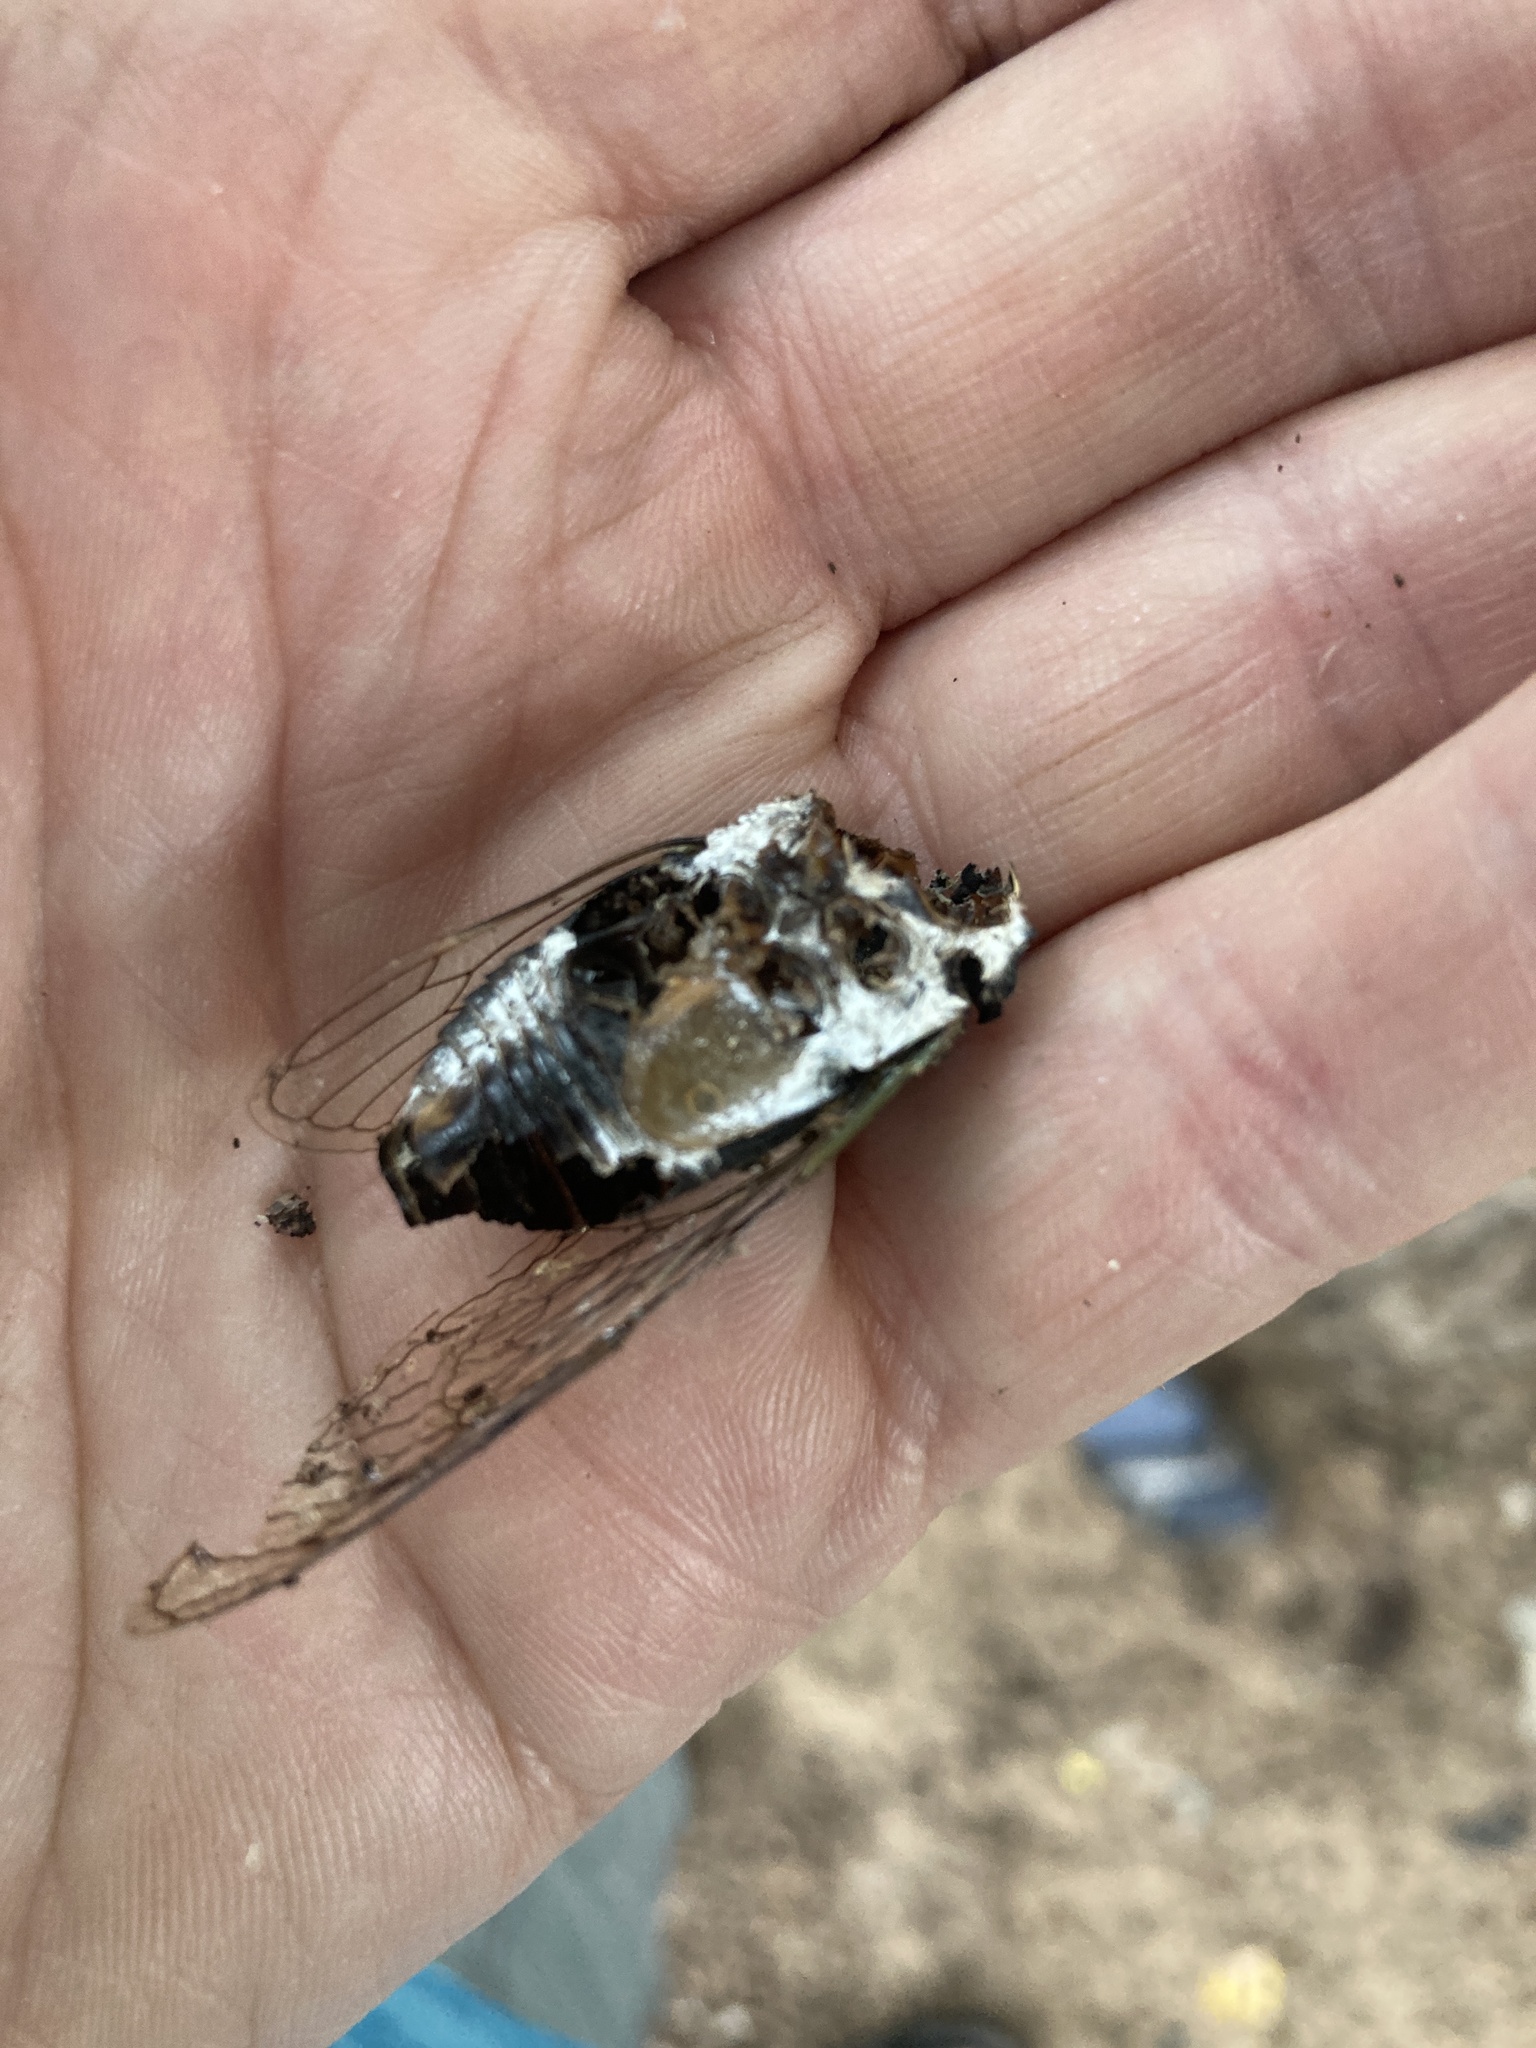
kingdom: Animalia
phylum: Arthropoda
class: Insecta
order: Hemiptera
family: Cicadidae
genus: Neotibicen
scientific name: Neotibicen lyricen
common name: Lyric cicada
